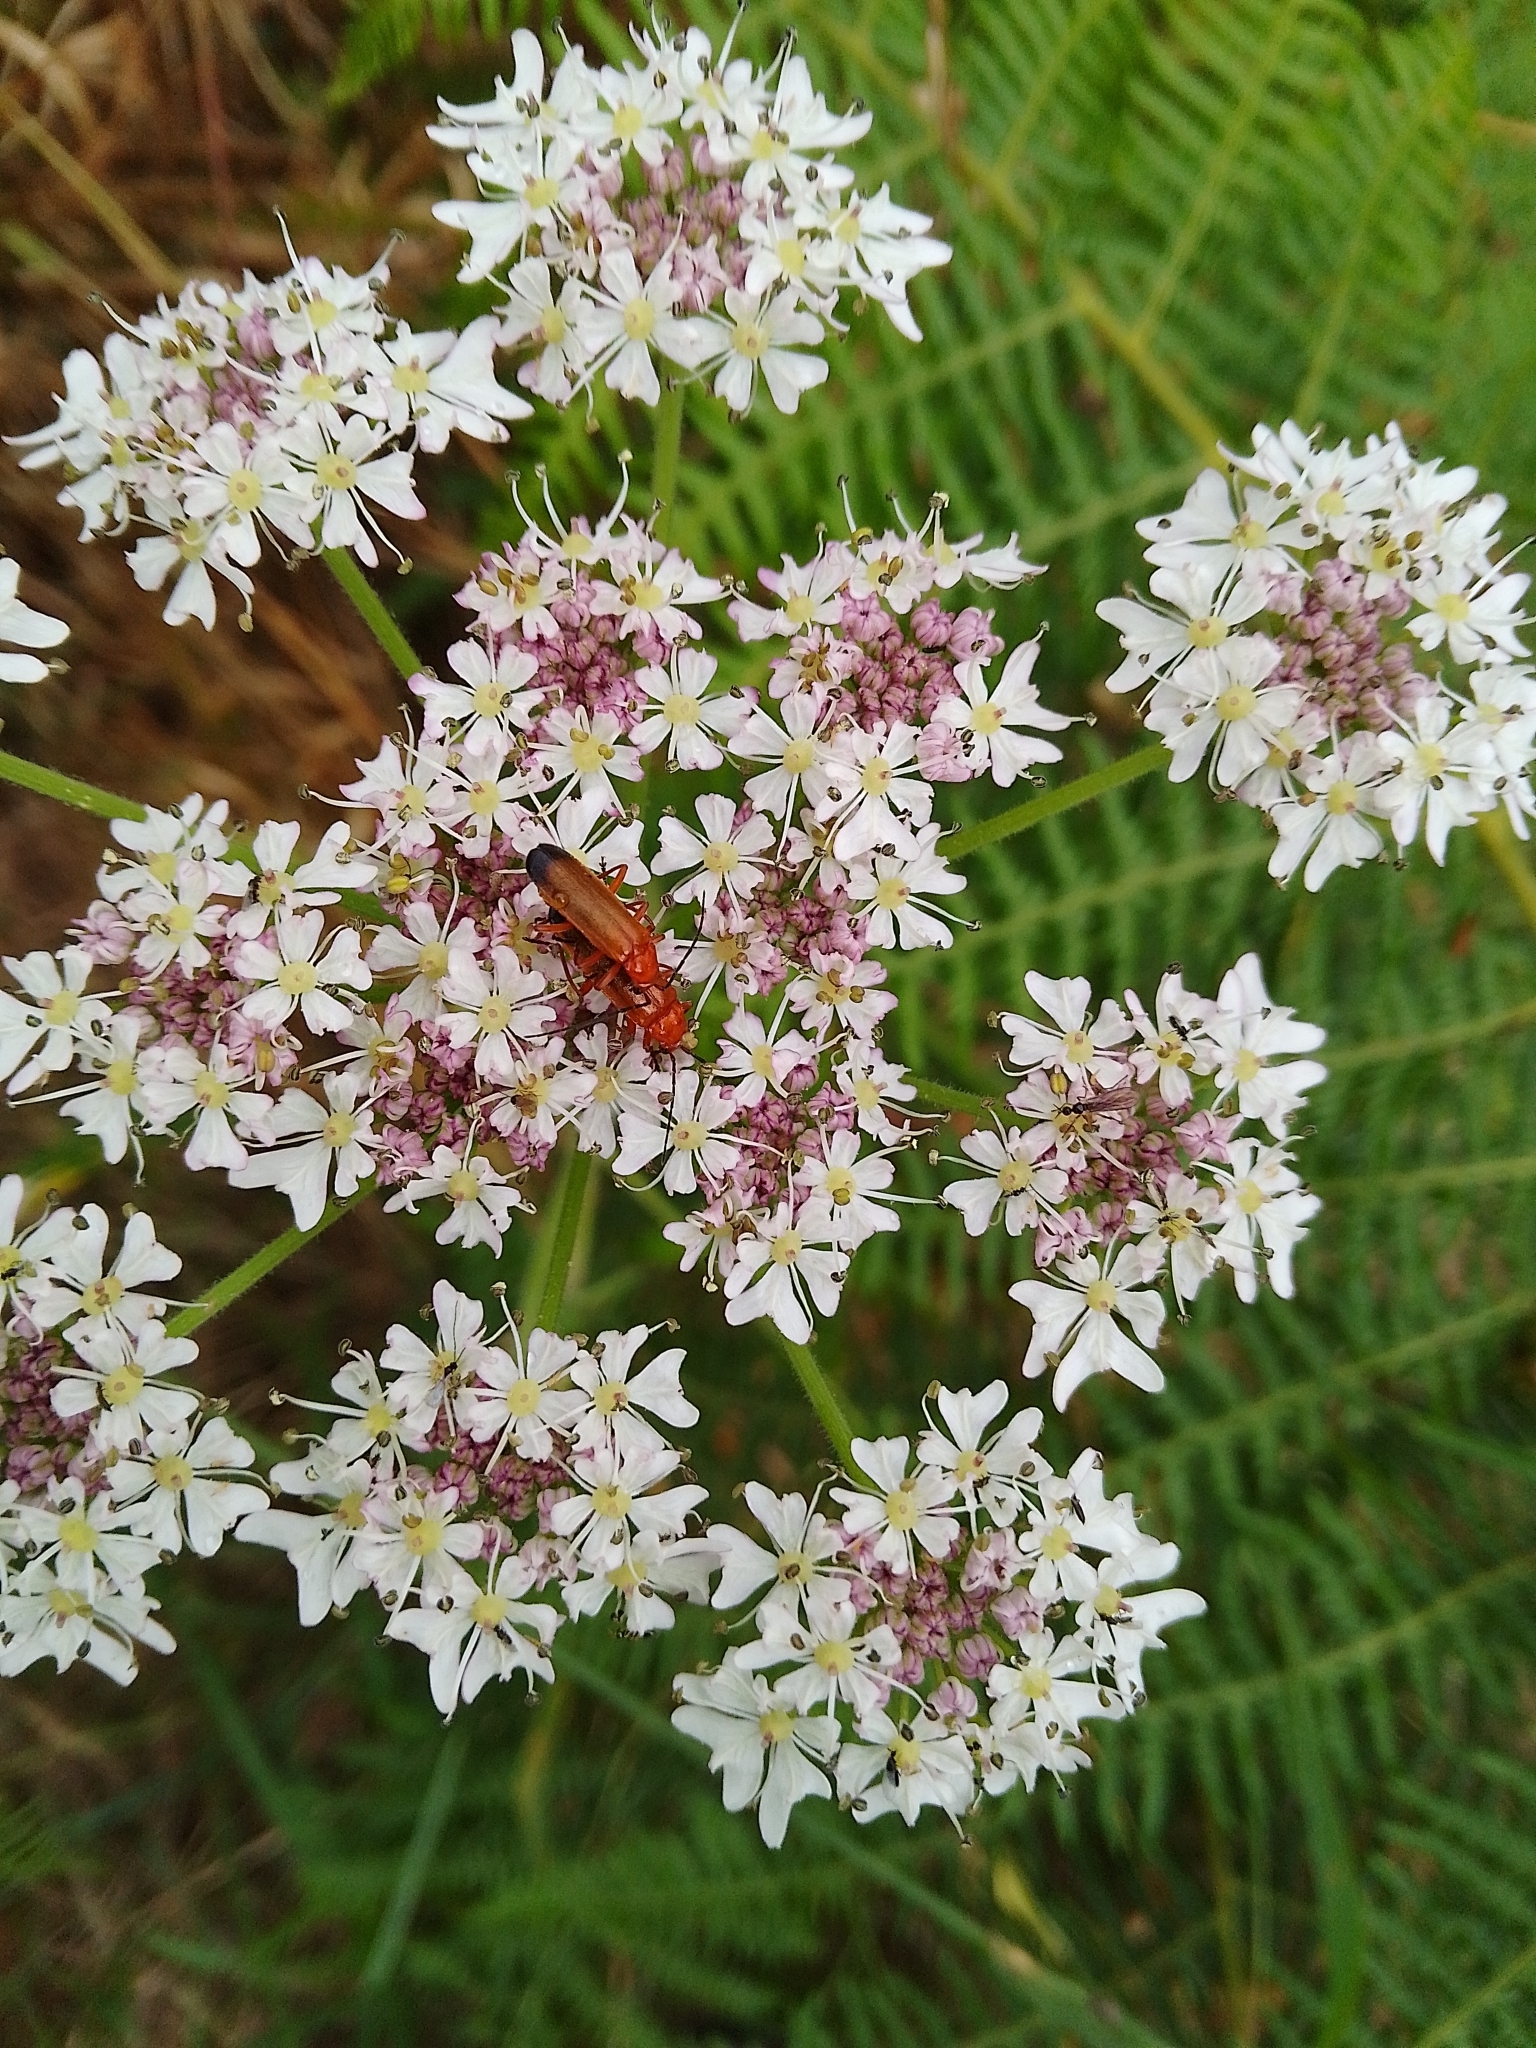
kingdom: Animalia
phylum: Arthropoda
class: Insecta
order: Coleoptera
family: Cantharidae
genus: Rhagonycha
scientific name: Rhagonycha fulva
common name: Common red soldier beetle
